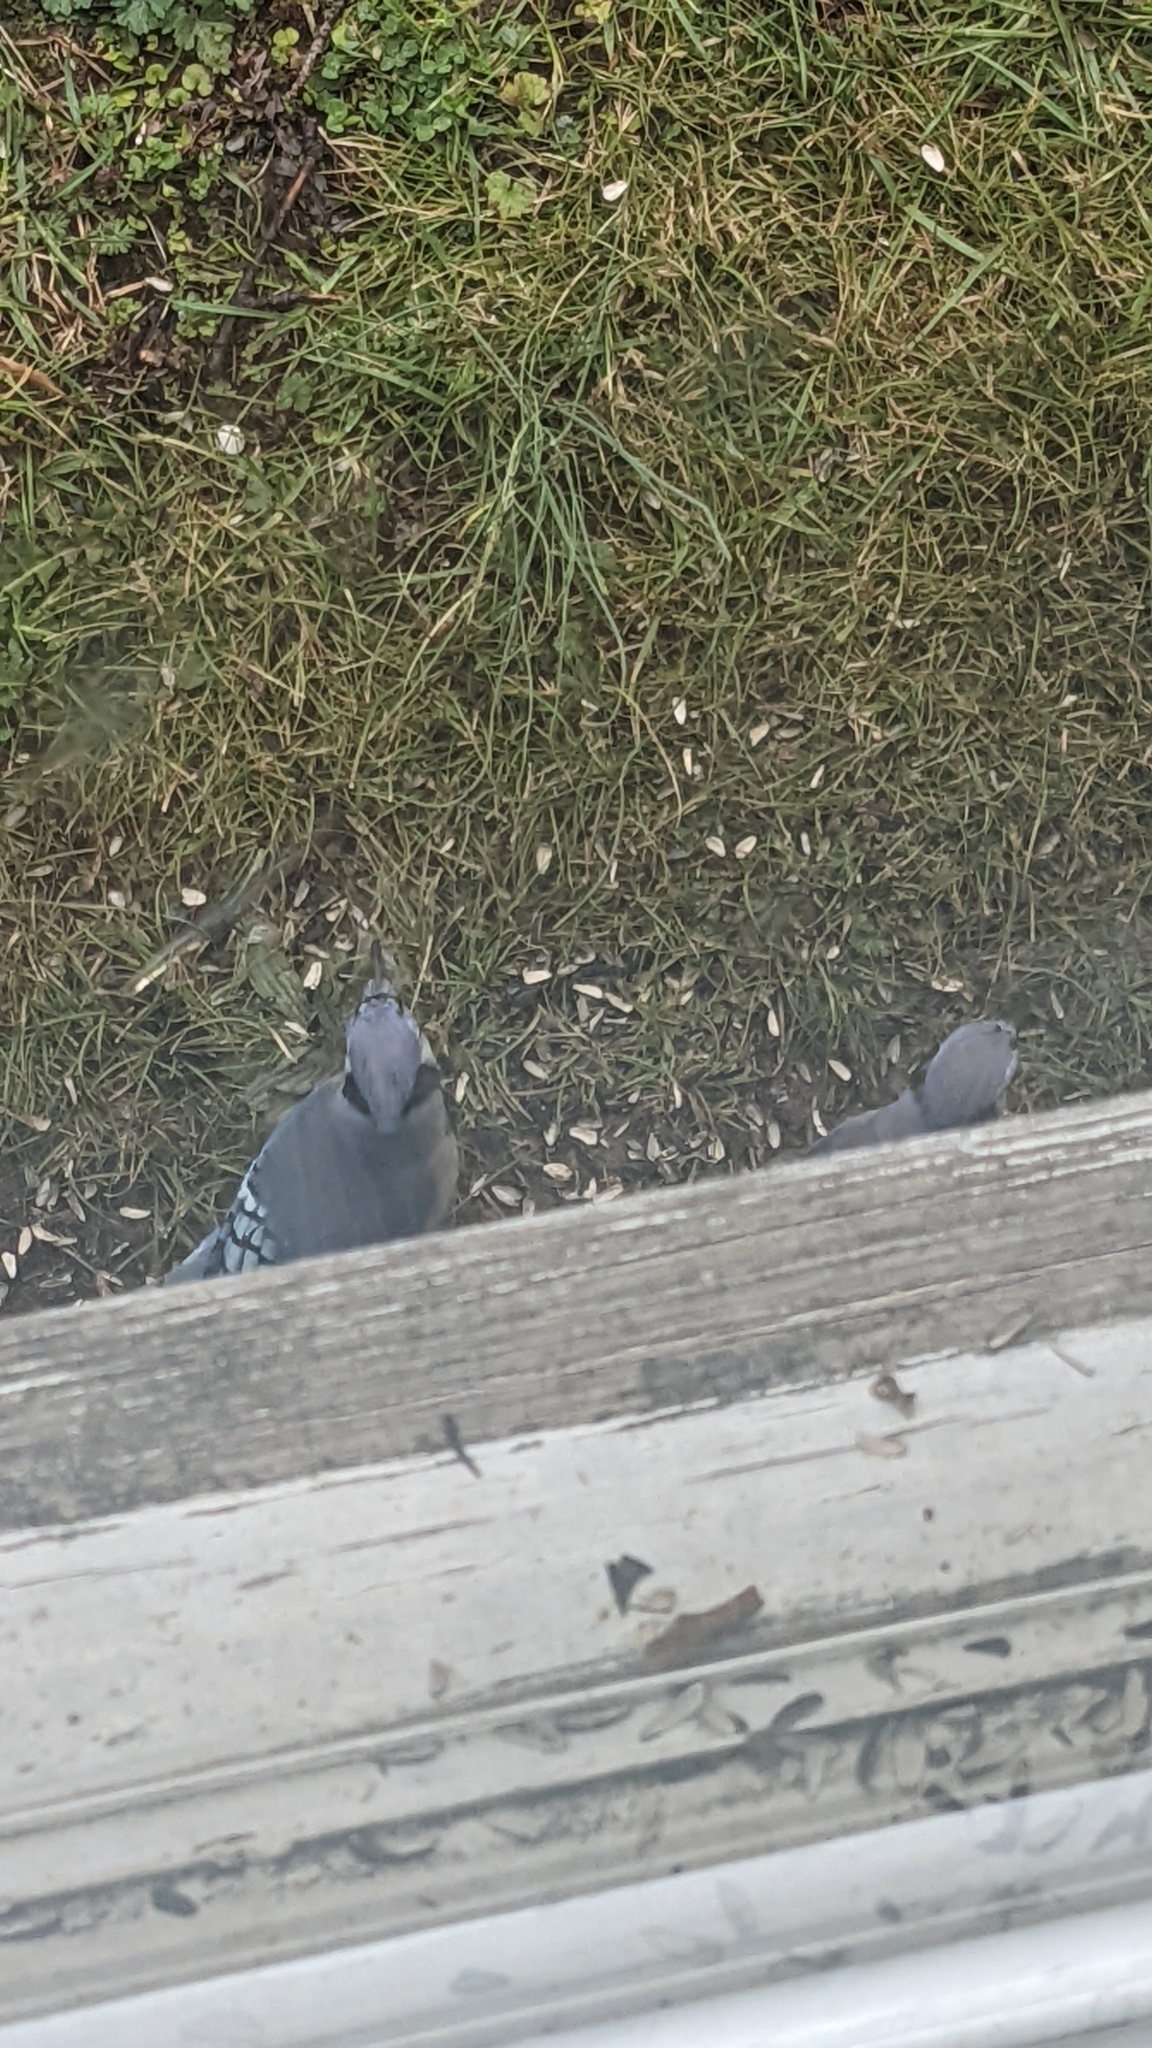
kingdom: Animalia
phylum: Chordata
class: Aves
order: Passeriformes
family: Corvidae
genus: Cyanocitta
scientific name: Cyanocitta cristata
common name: Blue jay
